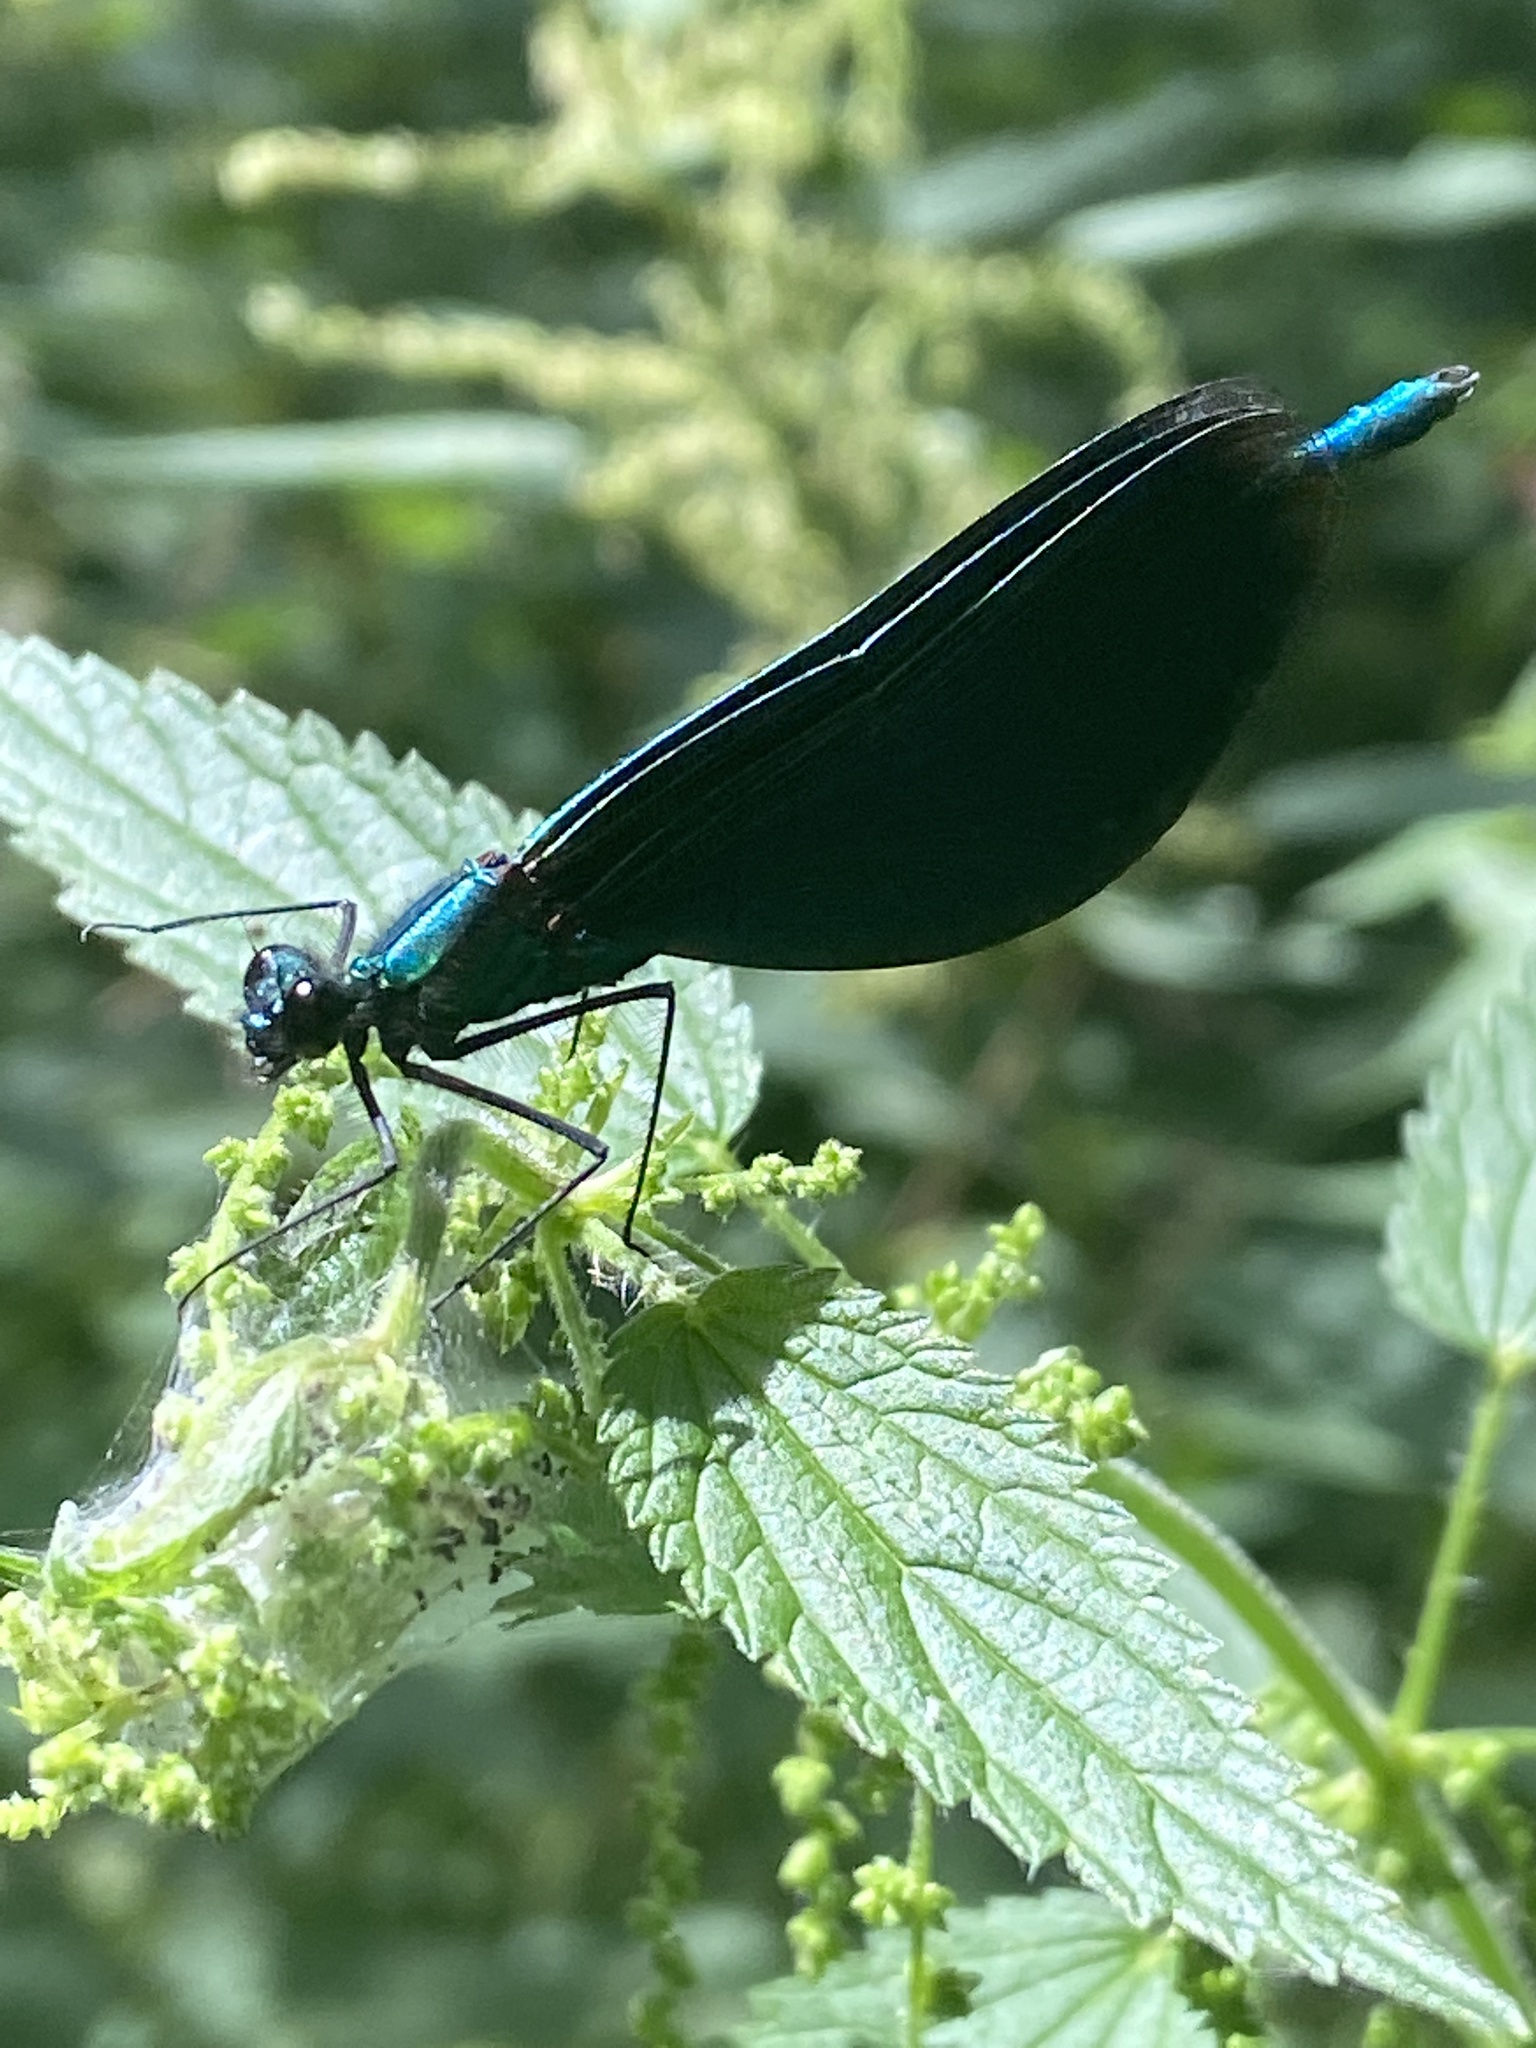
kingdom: Animalia
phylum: Arthropoda
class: Insecta
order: Odonata
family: Calopterygidae
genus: Calopteryx
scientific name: Calopteryx virgo
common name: Beautiful demoiselle
